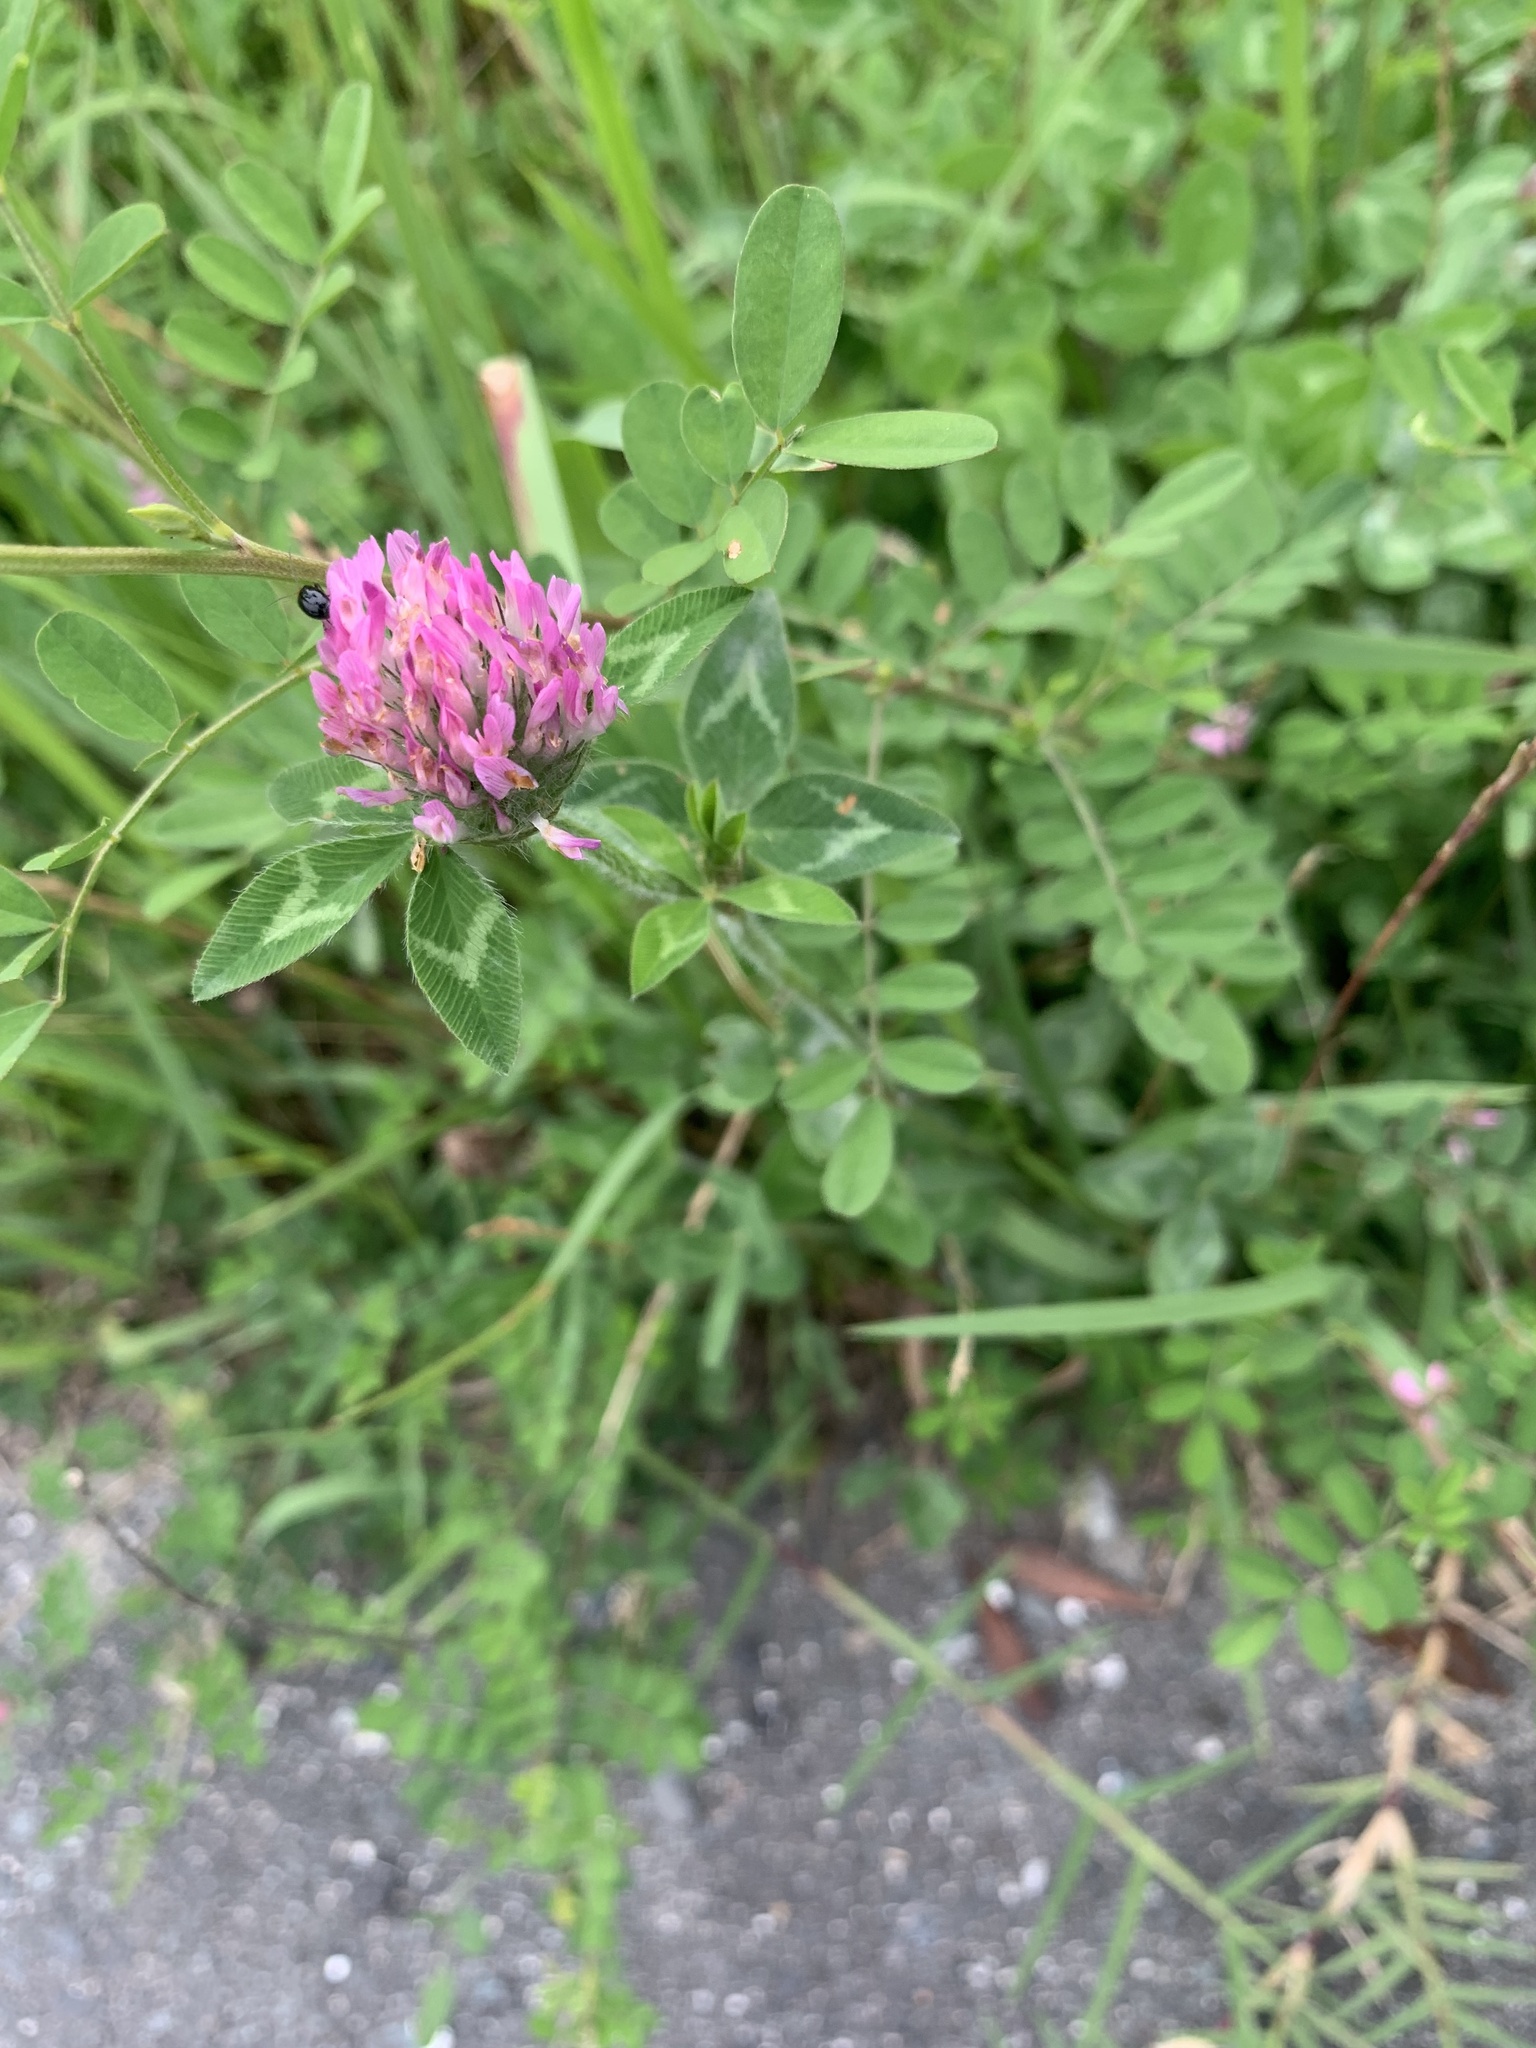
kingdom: Plantae
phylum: Tracheophyta
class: Magnoliopsida
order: Fabales
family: Fabaceae
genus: Trifolium
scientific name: Trifolium pratense
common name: Red clover
